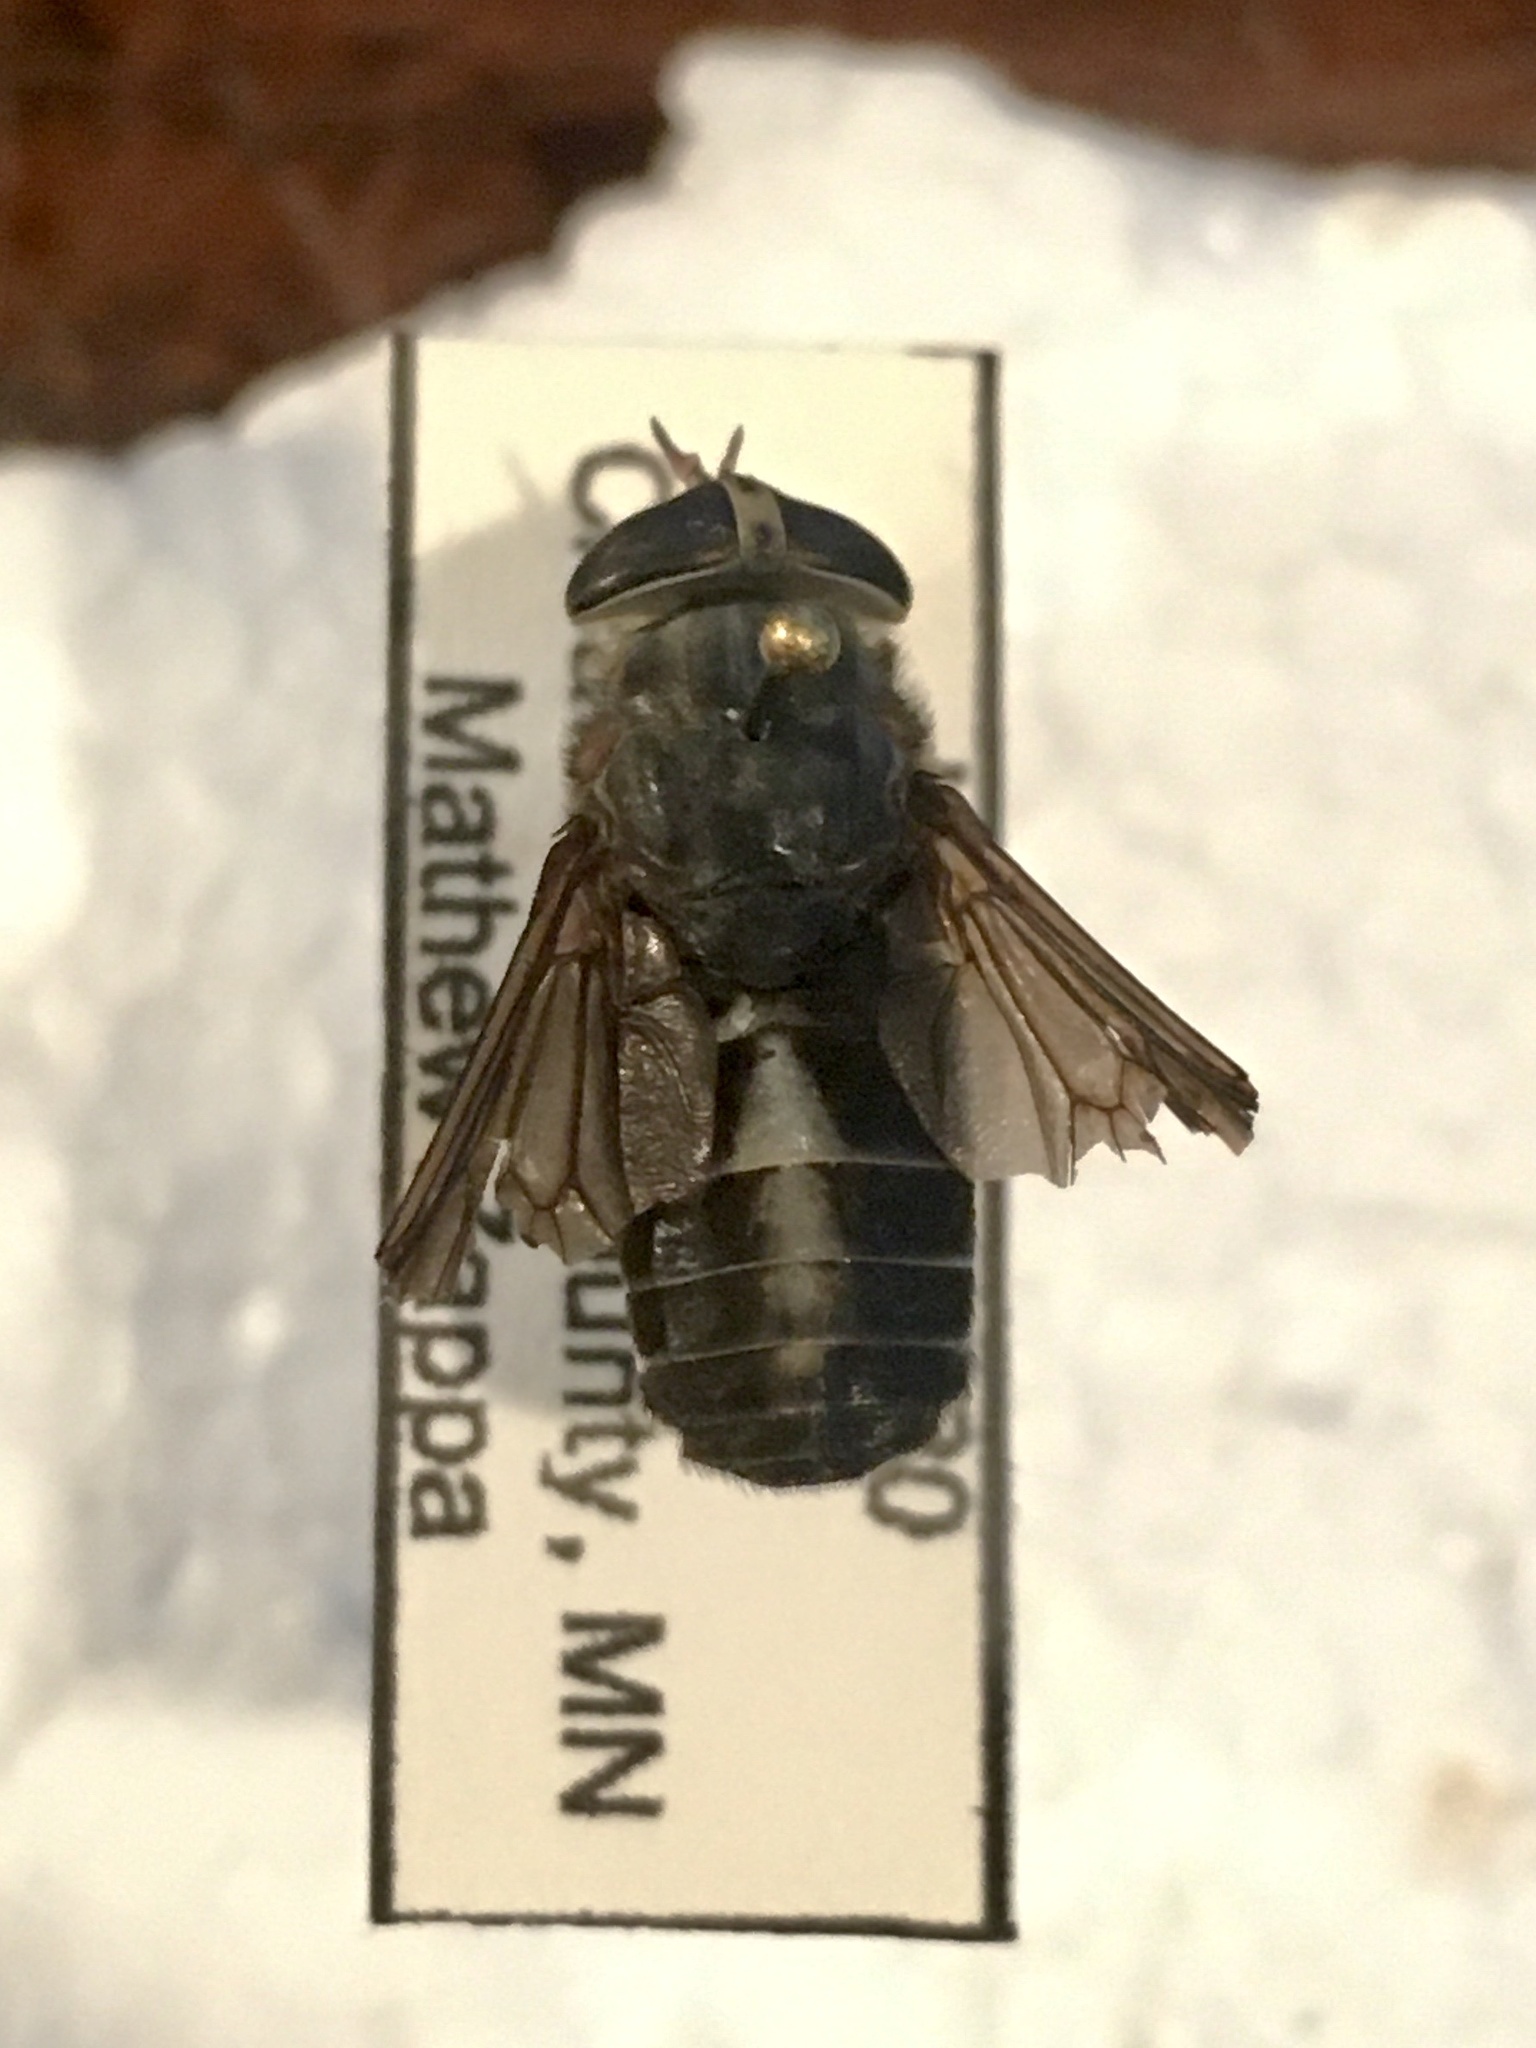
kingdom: Animalia
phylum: Arthropoda
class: Insecta
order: Diptera
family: Tabanidae
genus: Hybomitra
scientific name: Hybomitra sodalis
